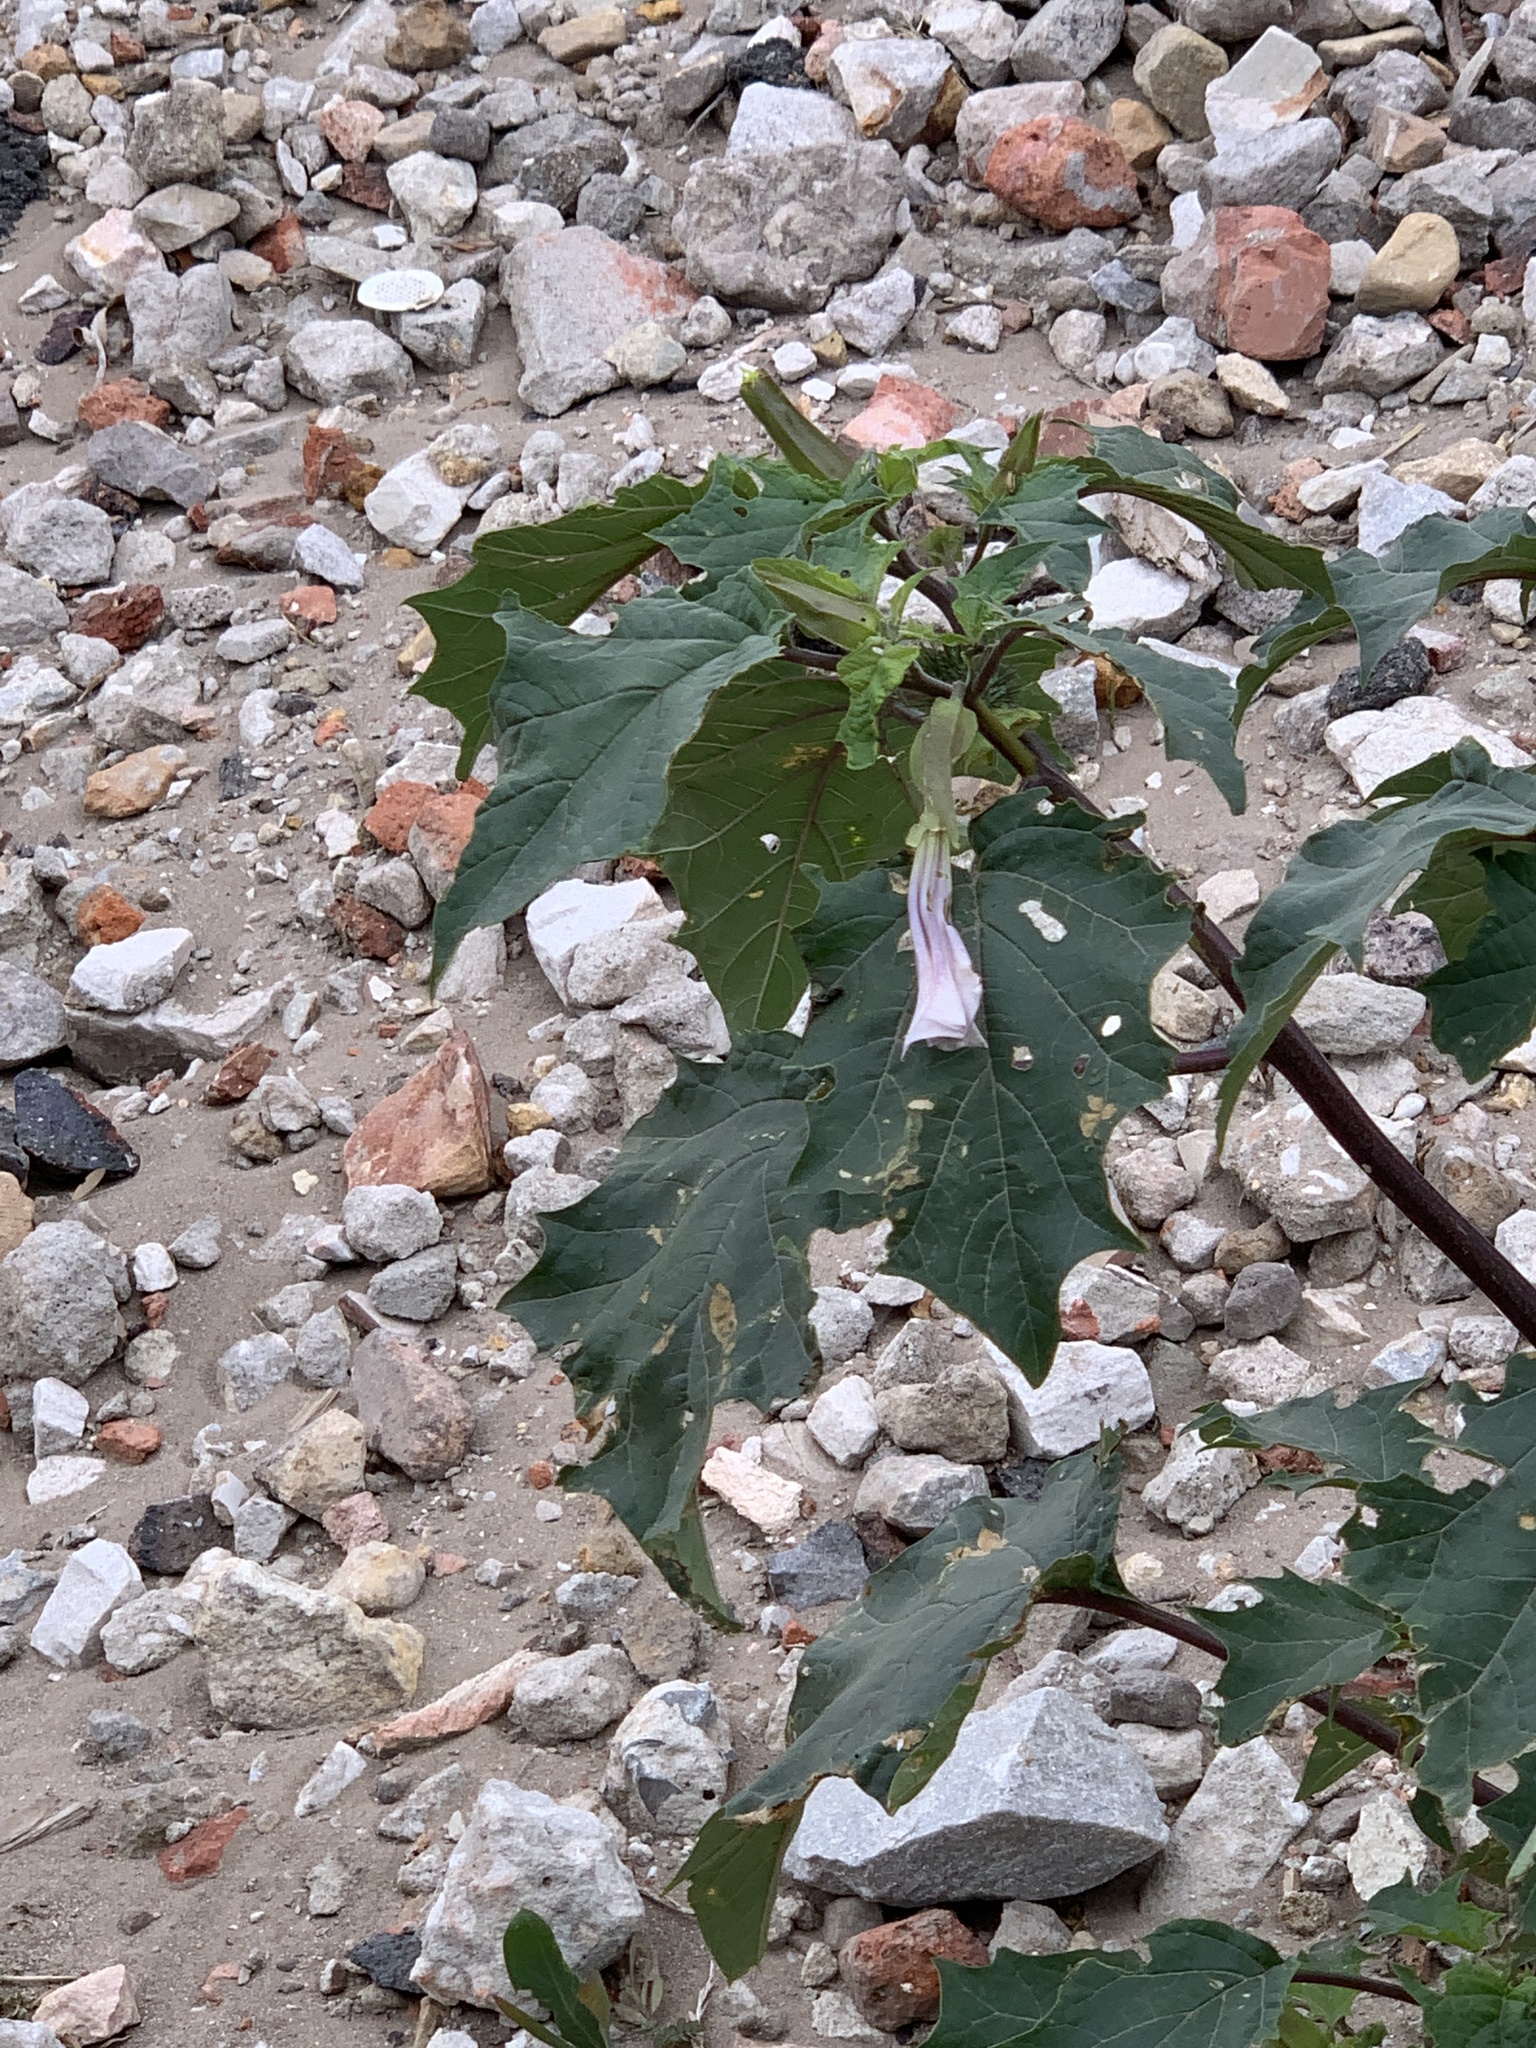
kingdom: Plantae
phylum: Tracheophyta
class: Magnoliopsida
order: Solanales
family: Solanaceae
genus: Datura
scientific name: Datura stramonium
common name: Thorn-apple
